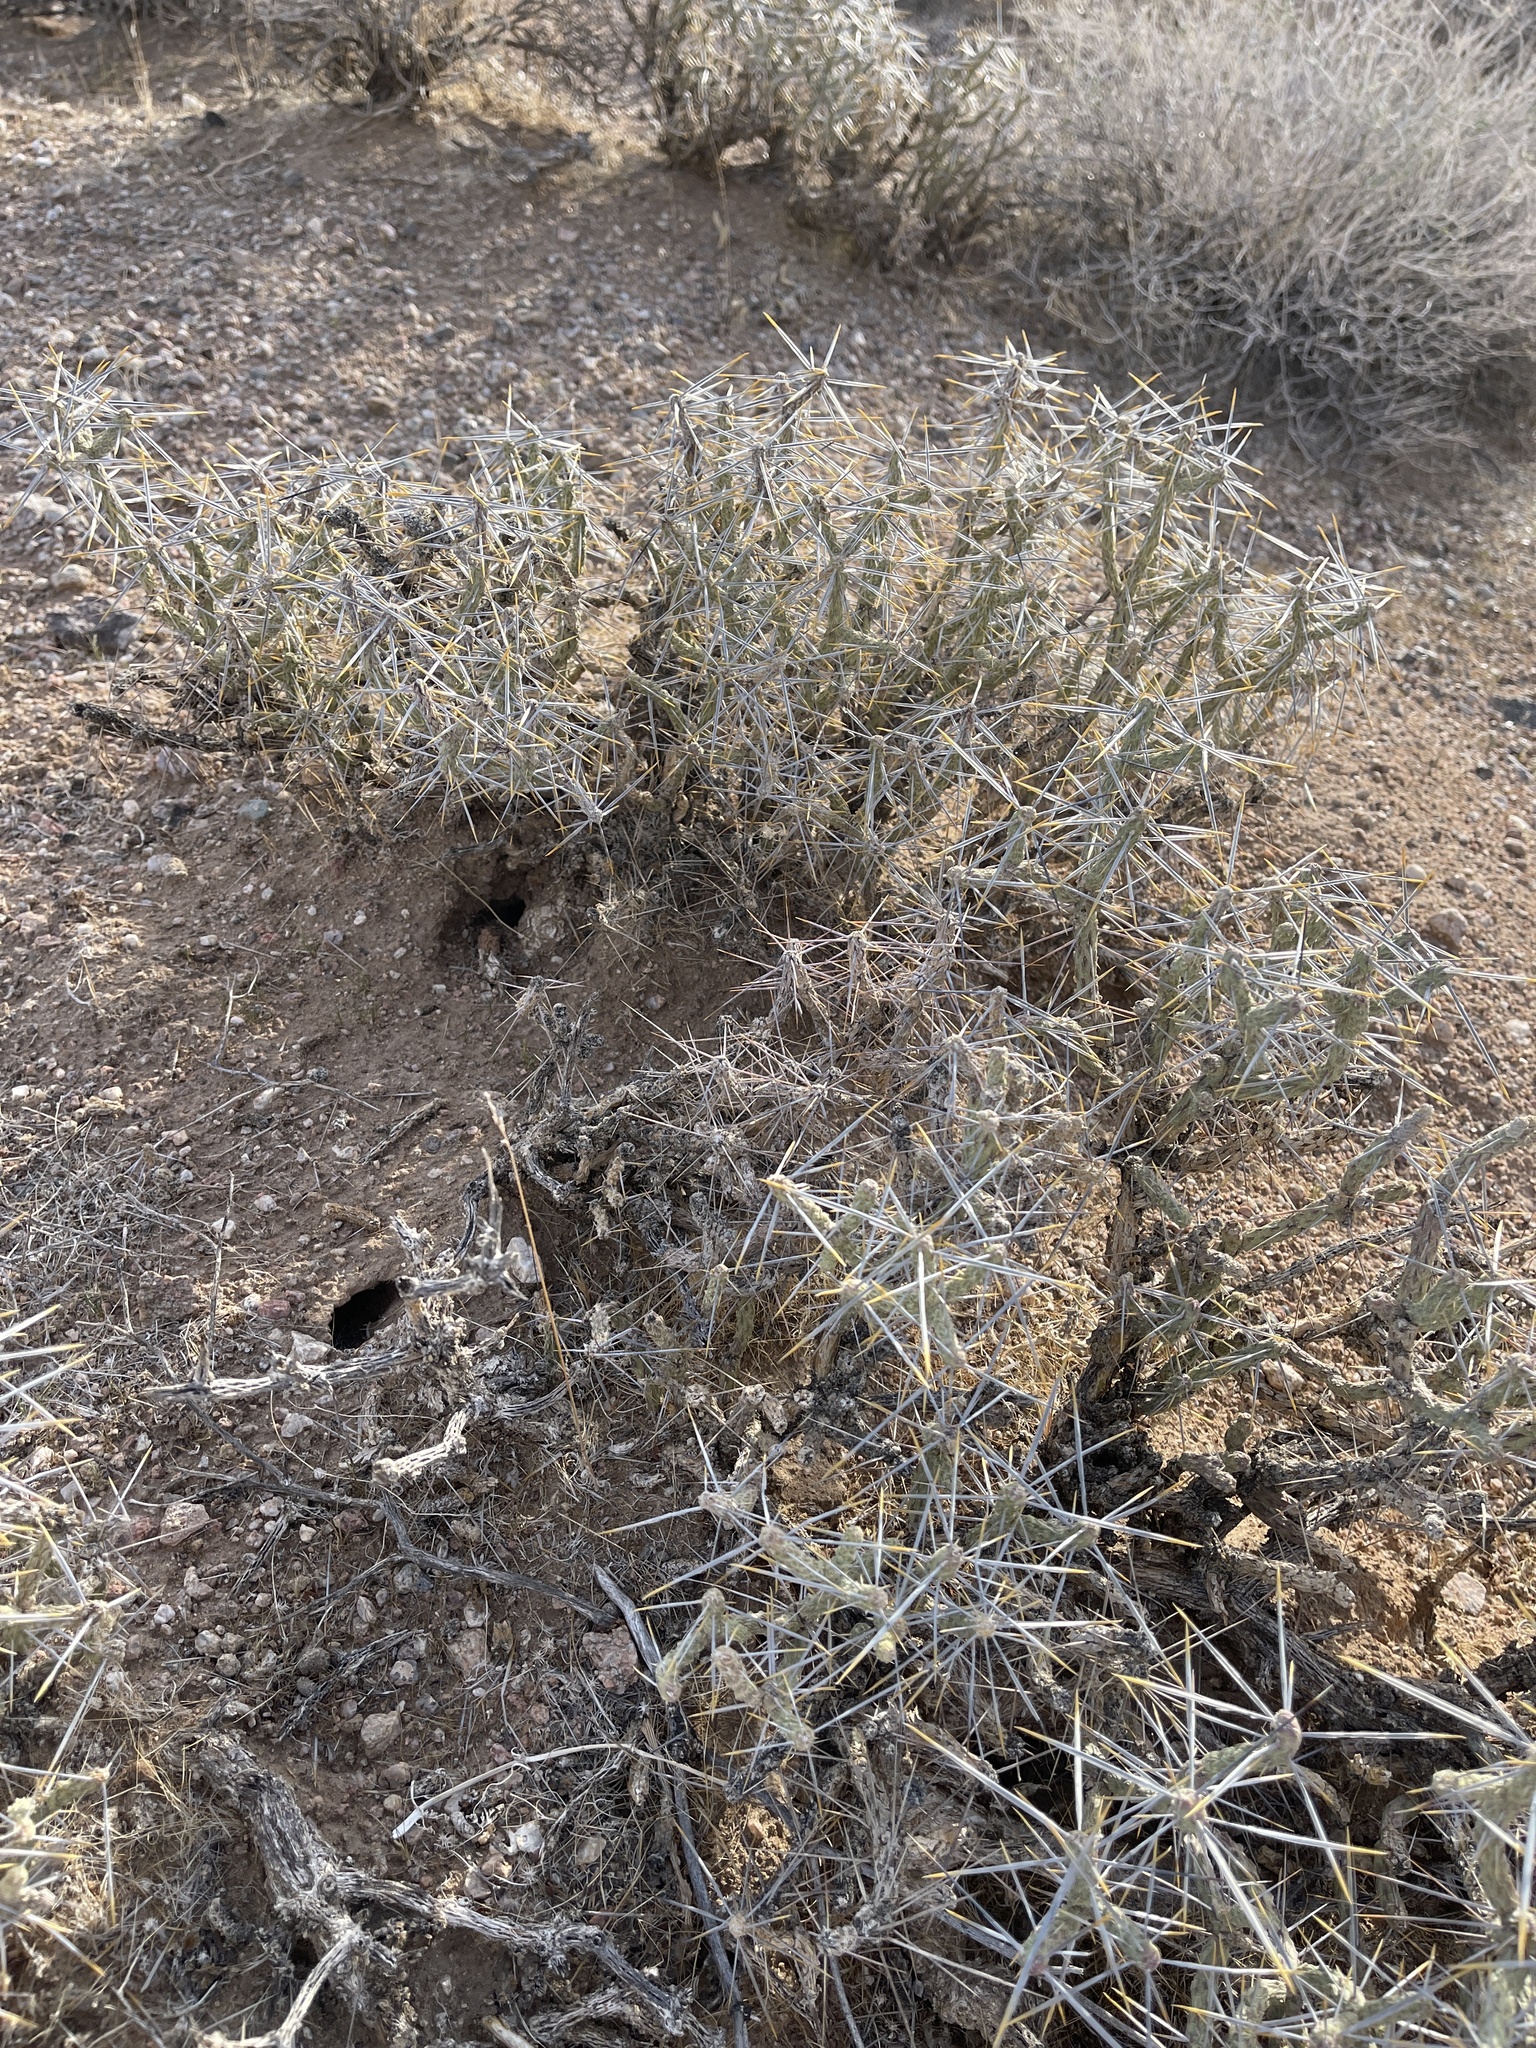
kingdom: Plantae
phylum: Tracheophyta
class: Magnoliopsida
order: Caryophyllales
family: Cactaceae
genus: Cylindropuntia
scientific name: Cylindropuntia ramosissima
